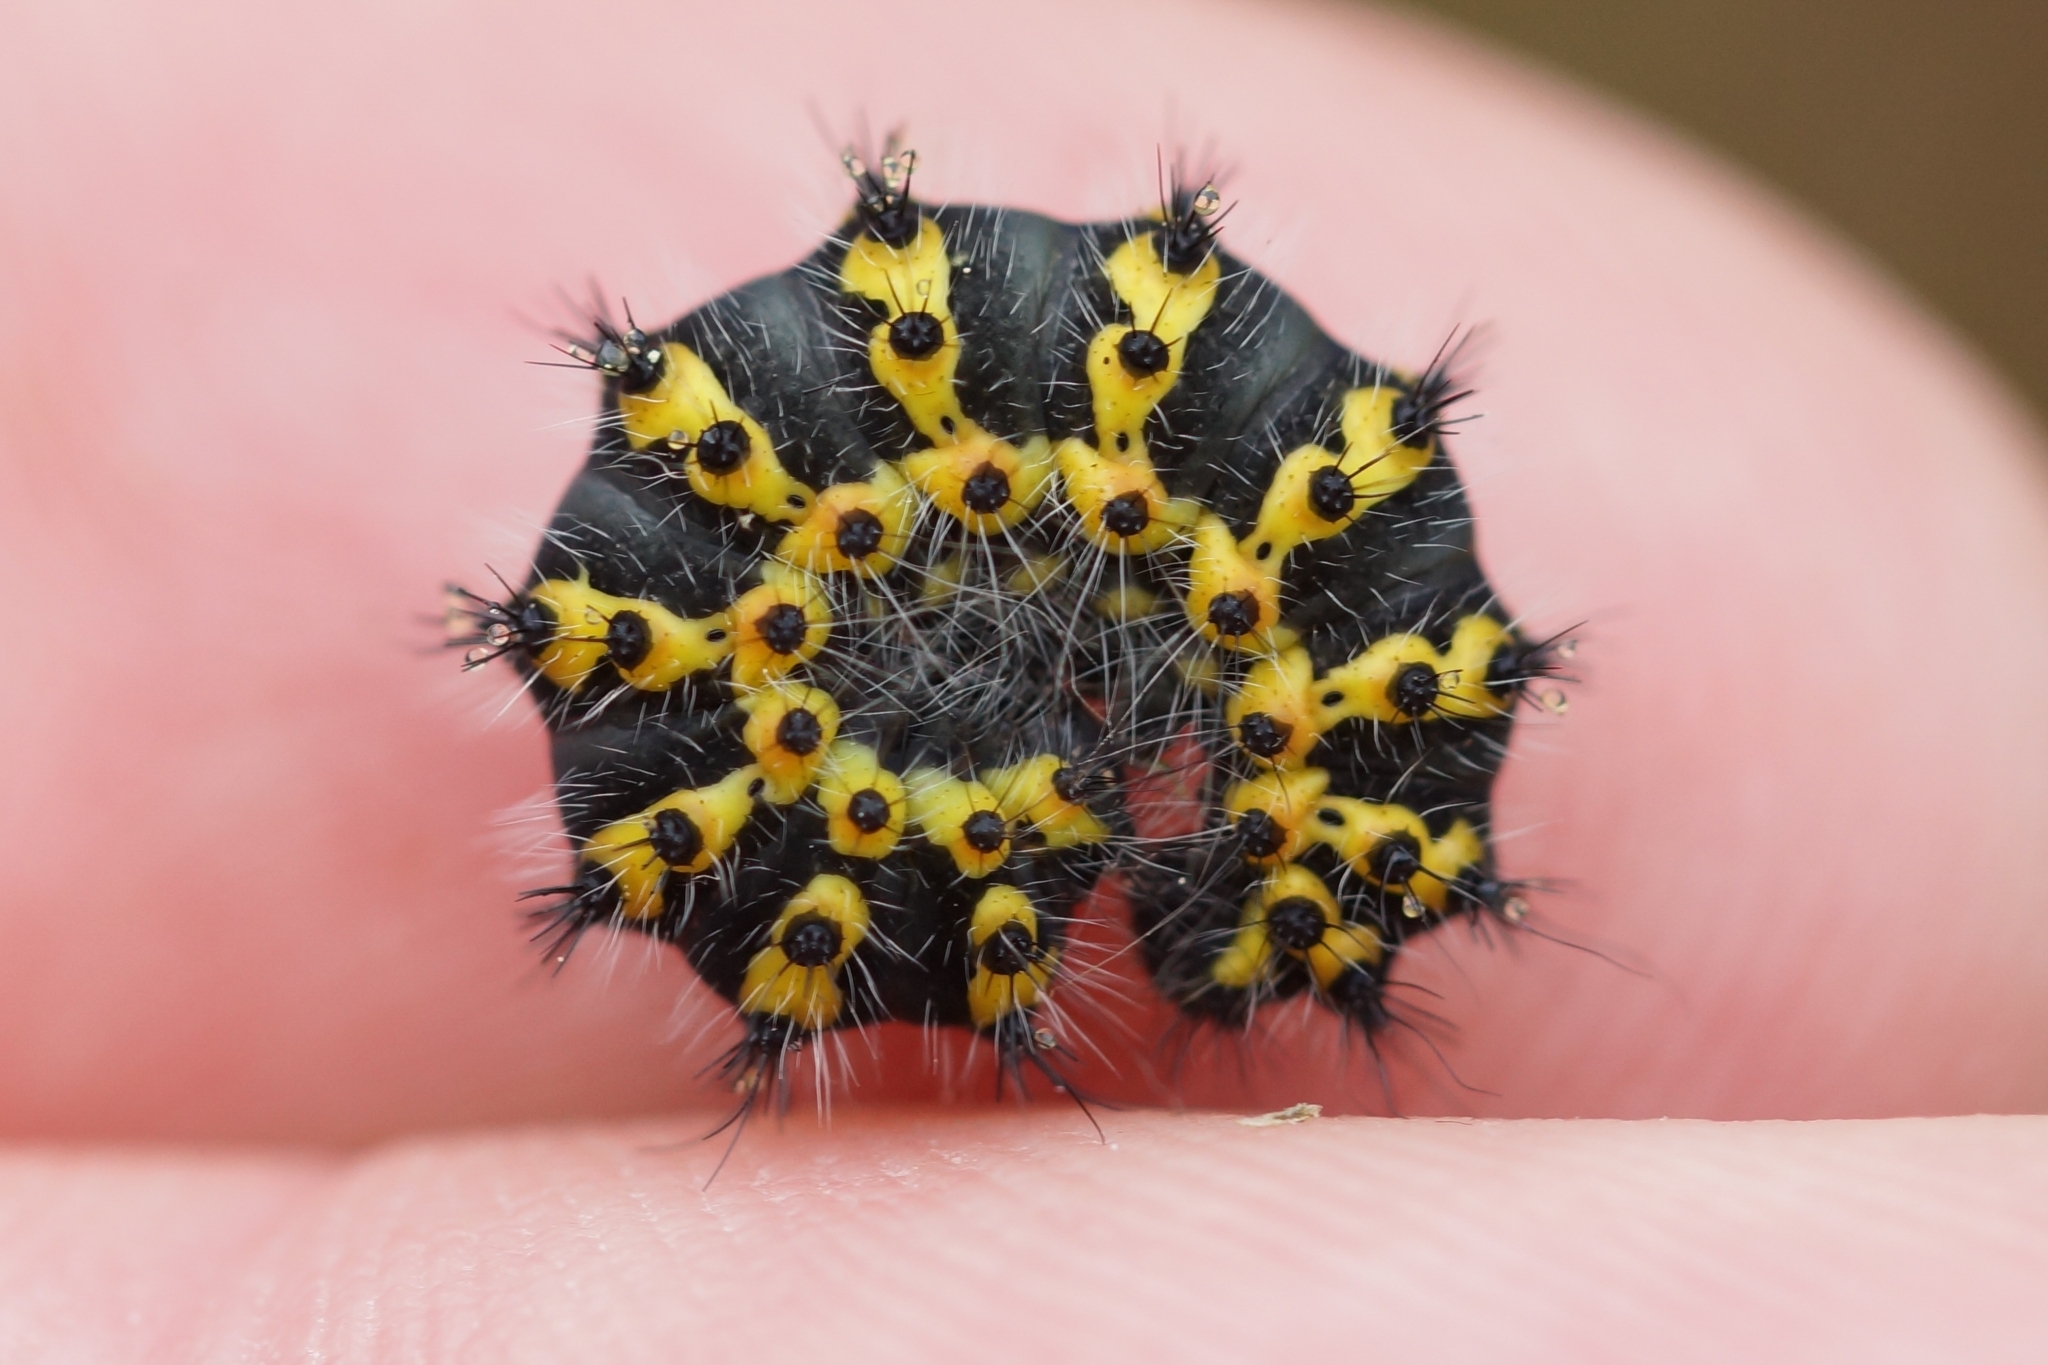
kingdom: Animalia
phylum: Arthropoda
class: Insecta
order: Lepidoptera
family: Saturniidae
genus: Saturnia
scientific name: Saturnia pavonia
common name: Emperor moth
